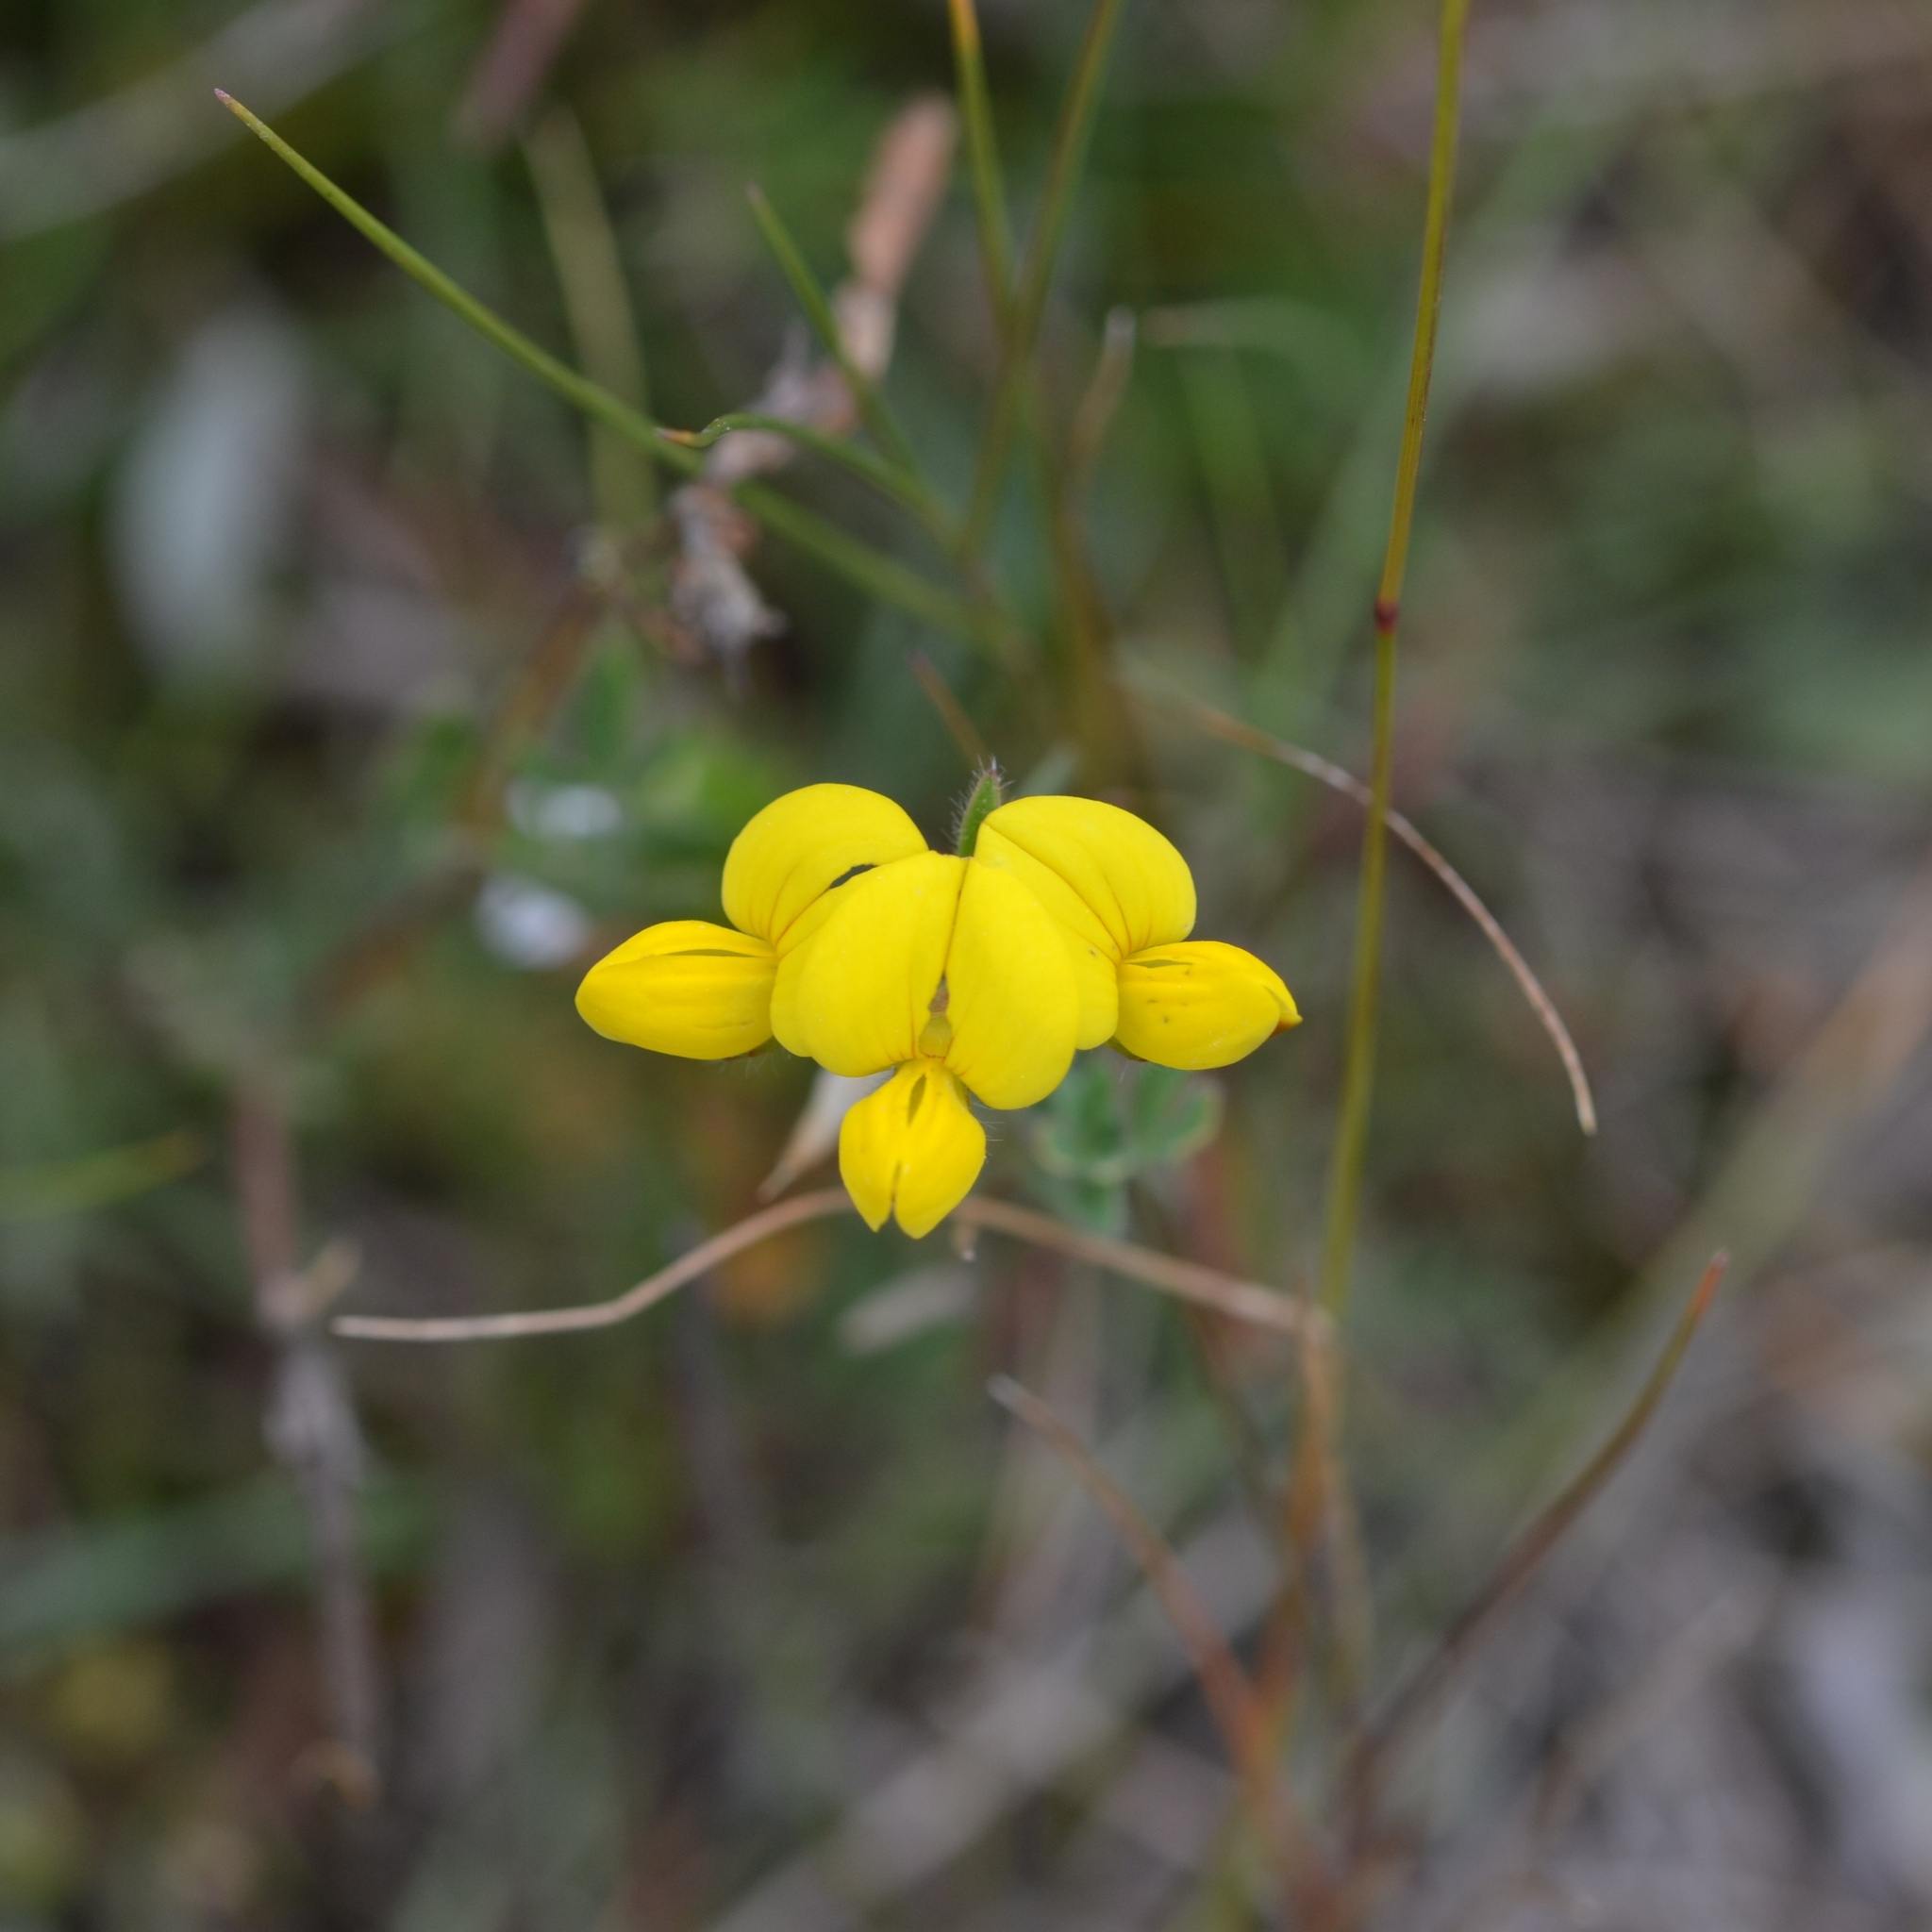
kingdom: Plantae
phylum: Tracheophyta
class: Magnoliopsida
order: Fabales
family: Fabaceae
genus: Lotus
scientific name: Lotus corniculatus
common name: Common bird's-foot-trefoil
